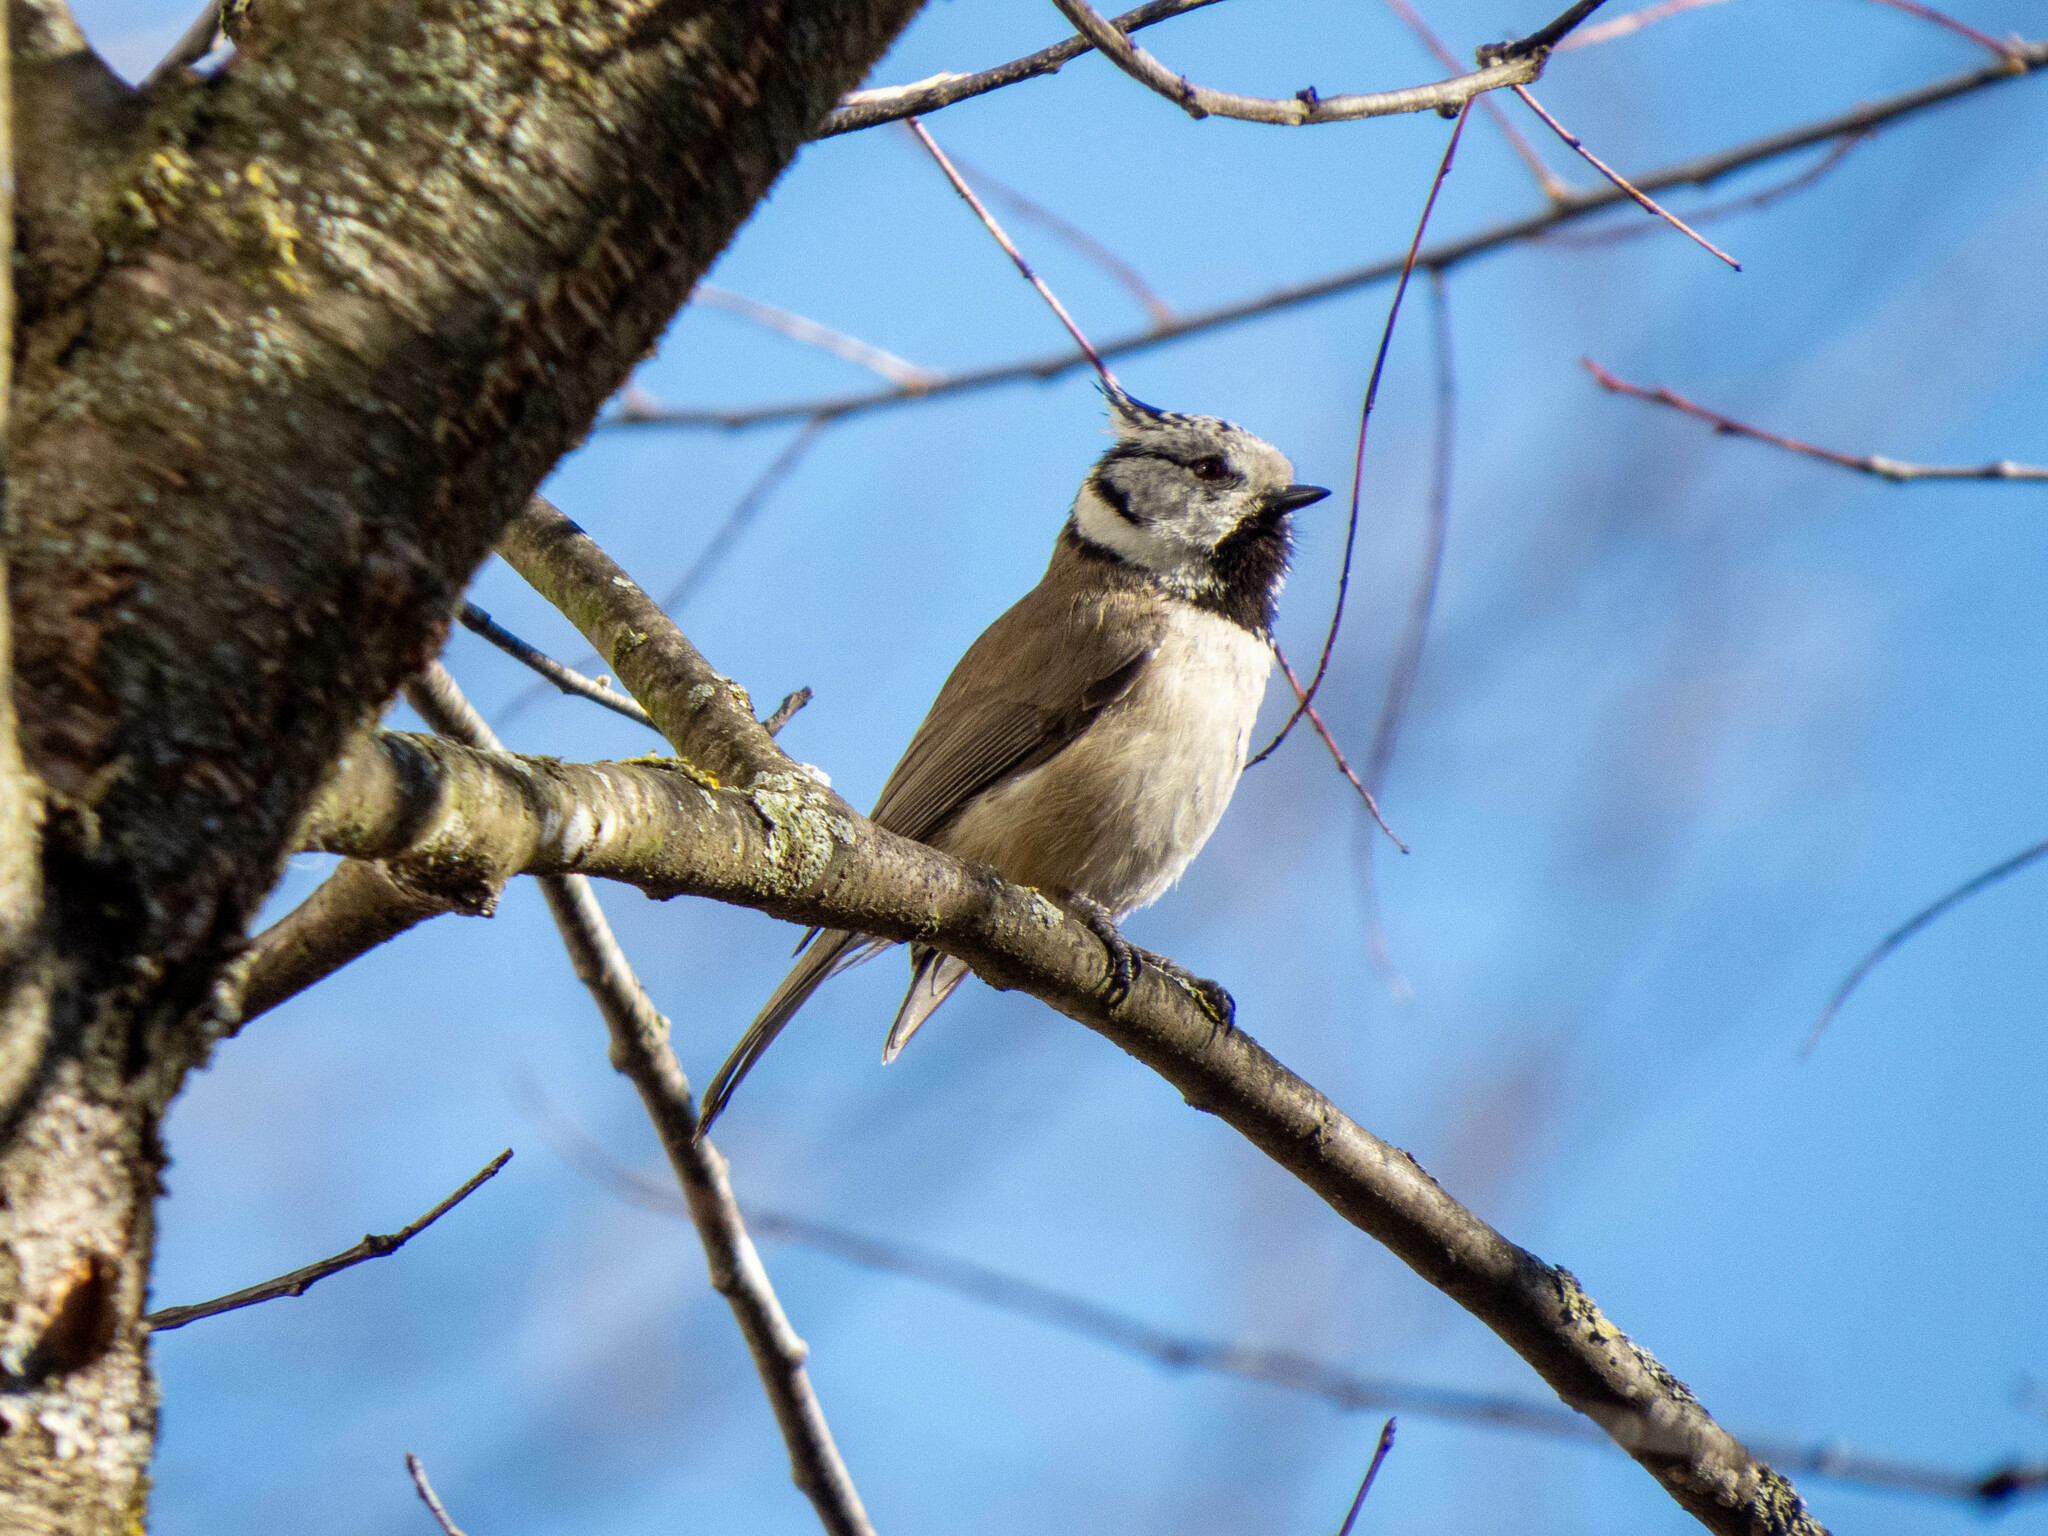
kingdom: Animalia
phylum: Chordata
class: Aves
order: Passeriformes
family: Paridae
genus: Lophophanes
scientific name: Lophophanes cristatus
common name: European crested tit
